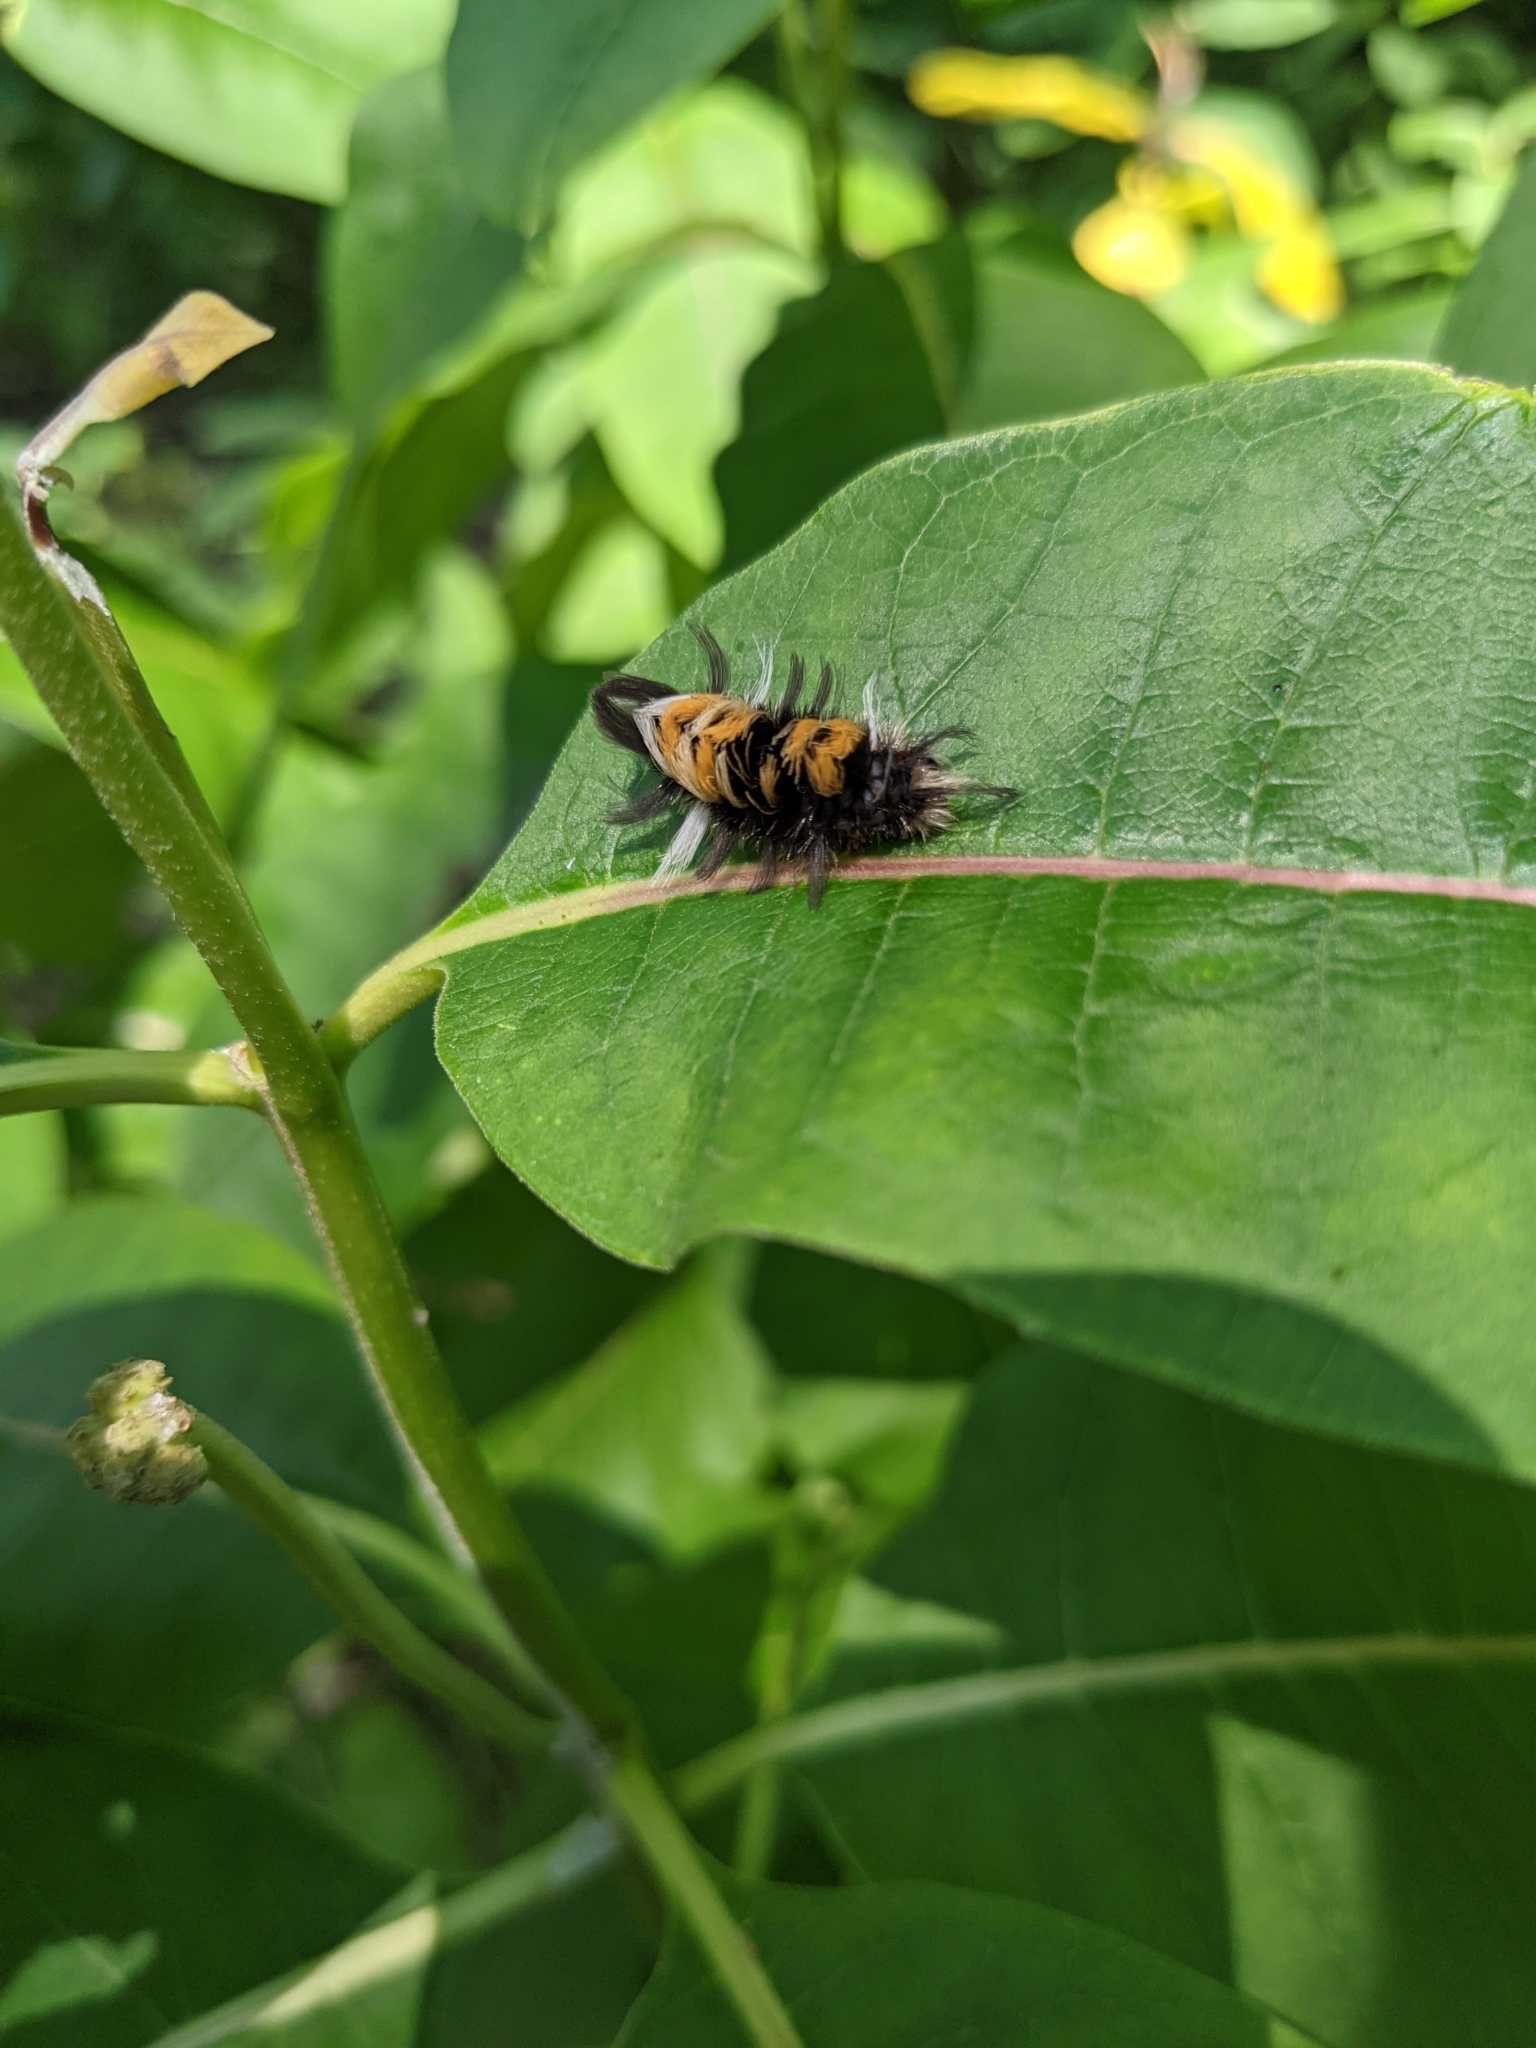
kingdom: Animalia
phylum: Arthropoda
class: Insecta
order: Lepidoptera
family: Erebidae
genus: Euchaetes
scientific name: Euchaetes egle
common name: Milkweed tussock moth
